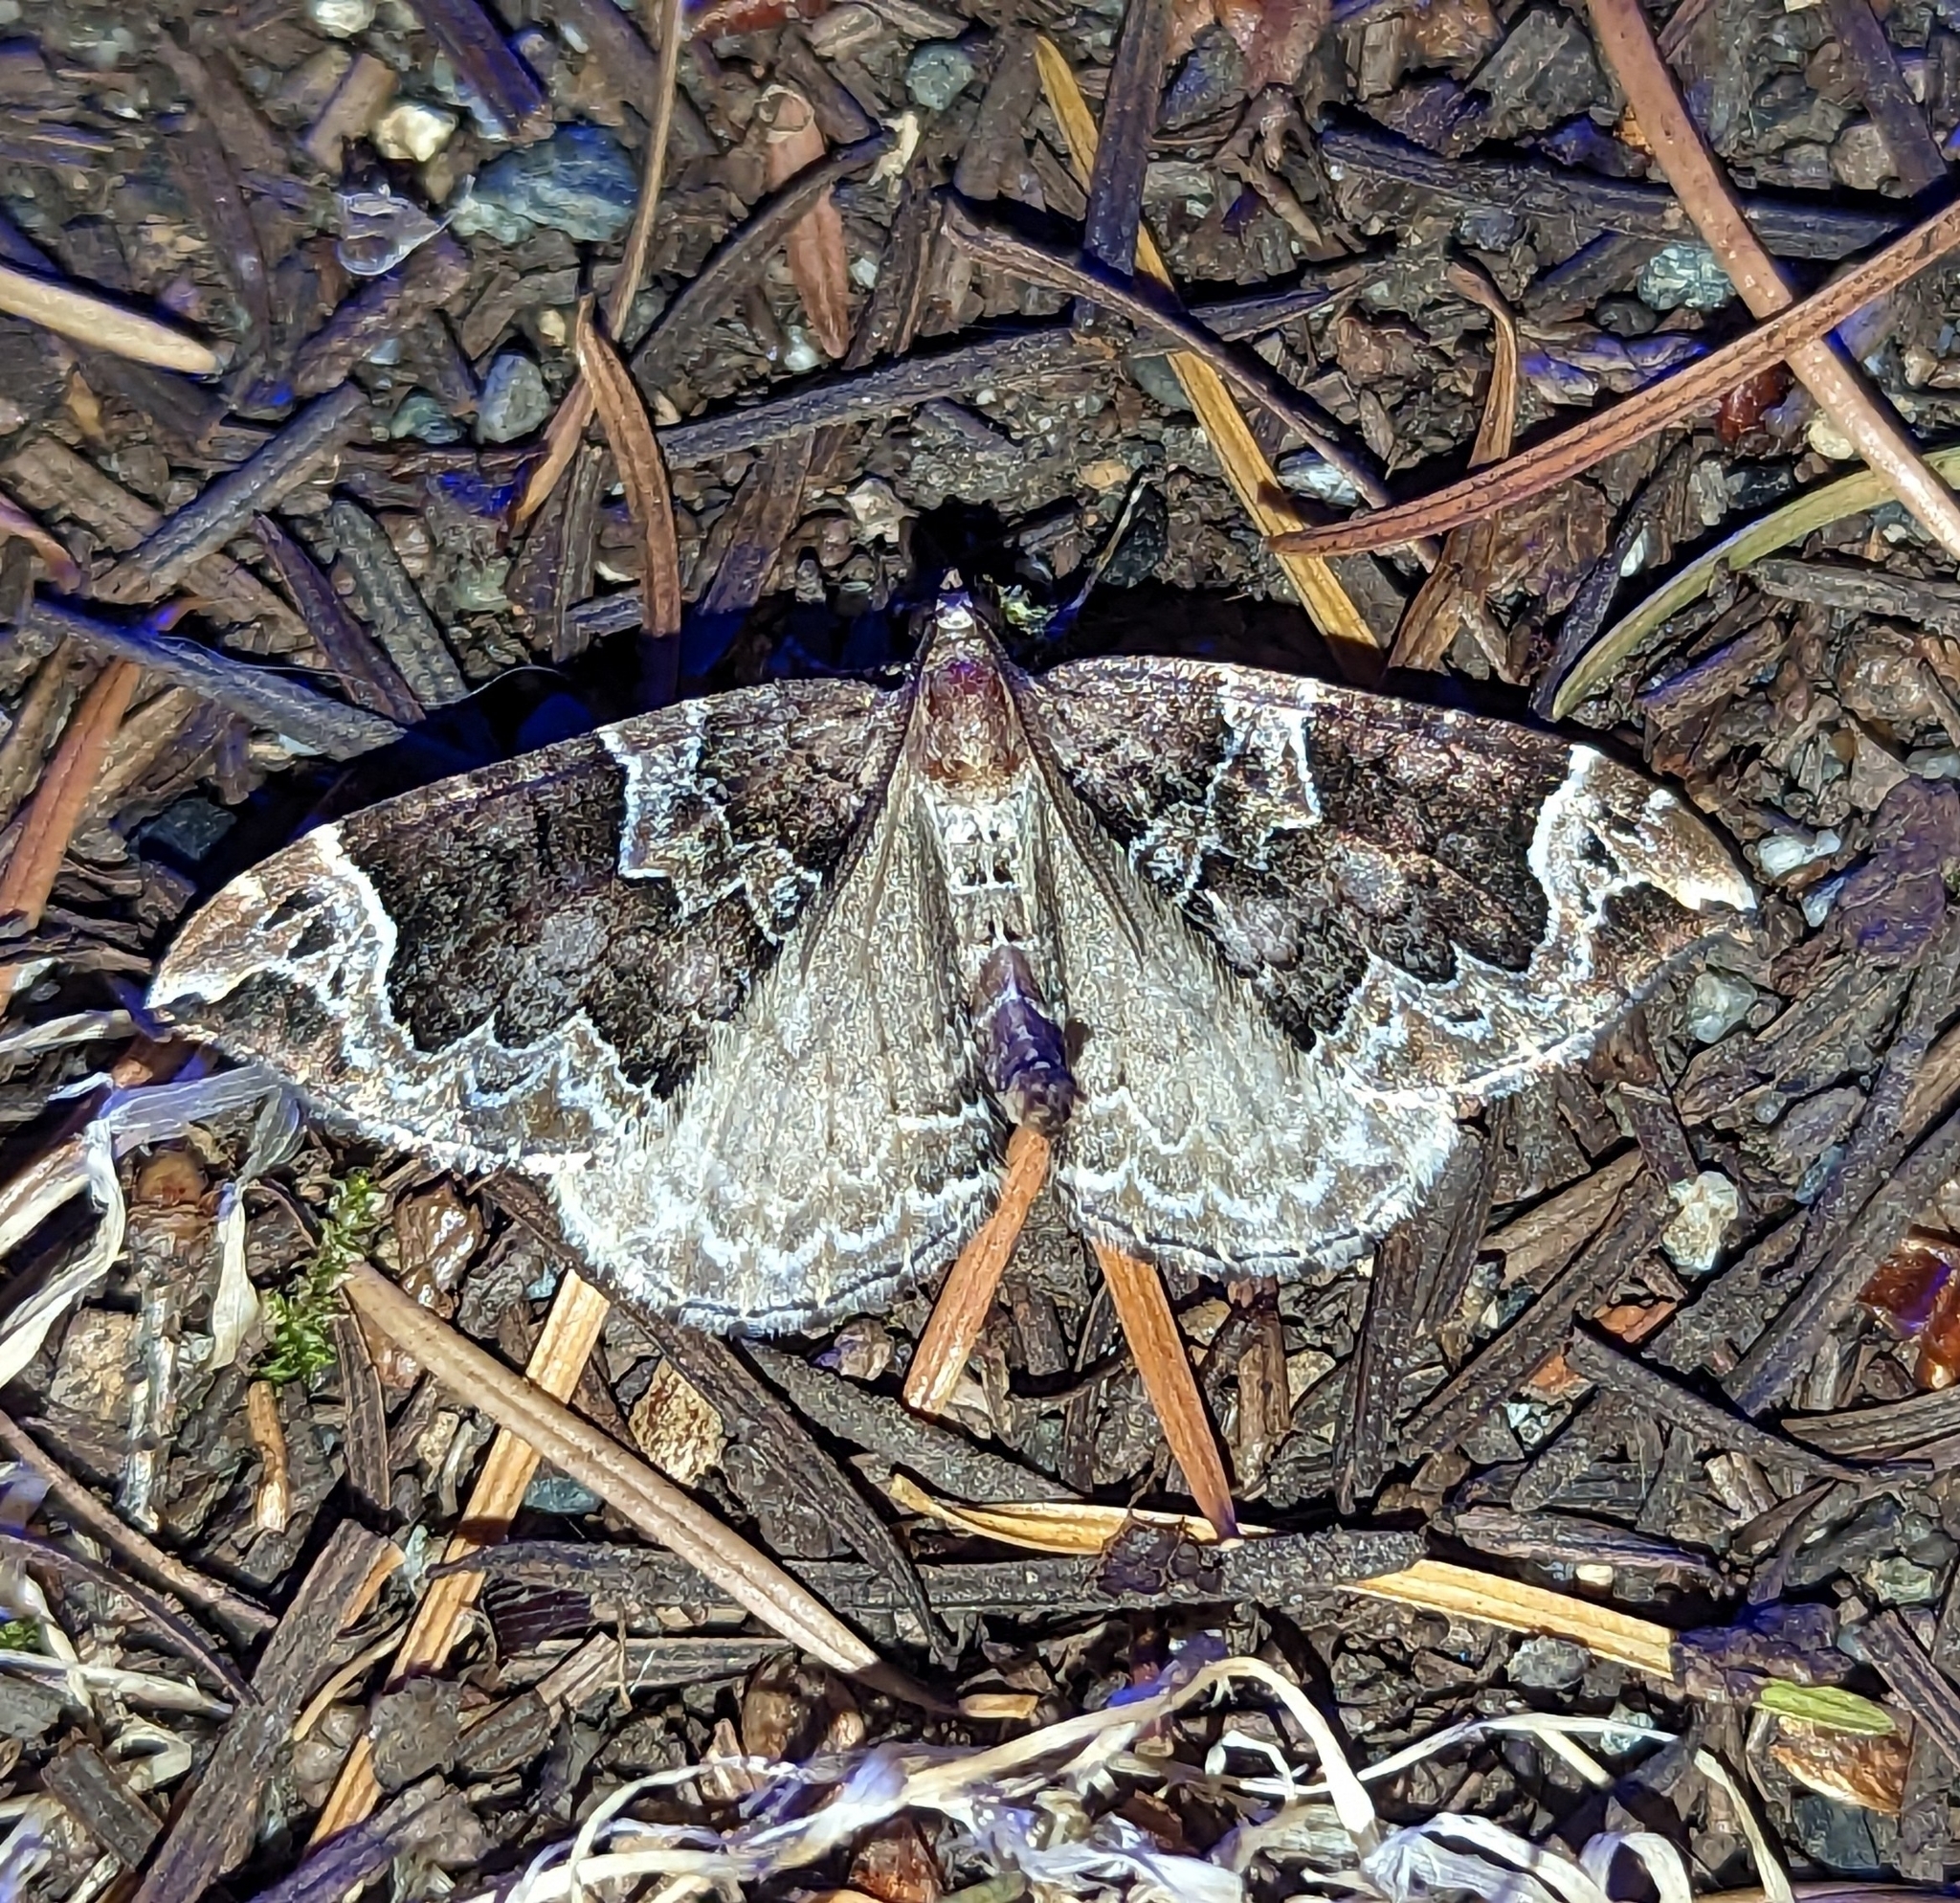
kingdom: Animalia
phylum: Arthropoda
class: Insecta
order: Lepidoptera
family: Geometridae
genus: Eulithis
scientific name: Eulithis xylina
